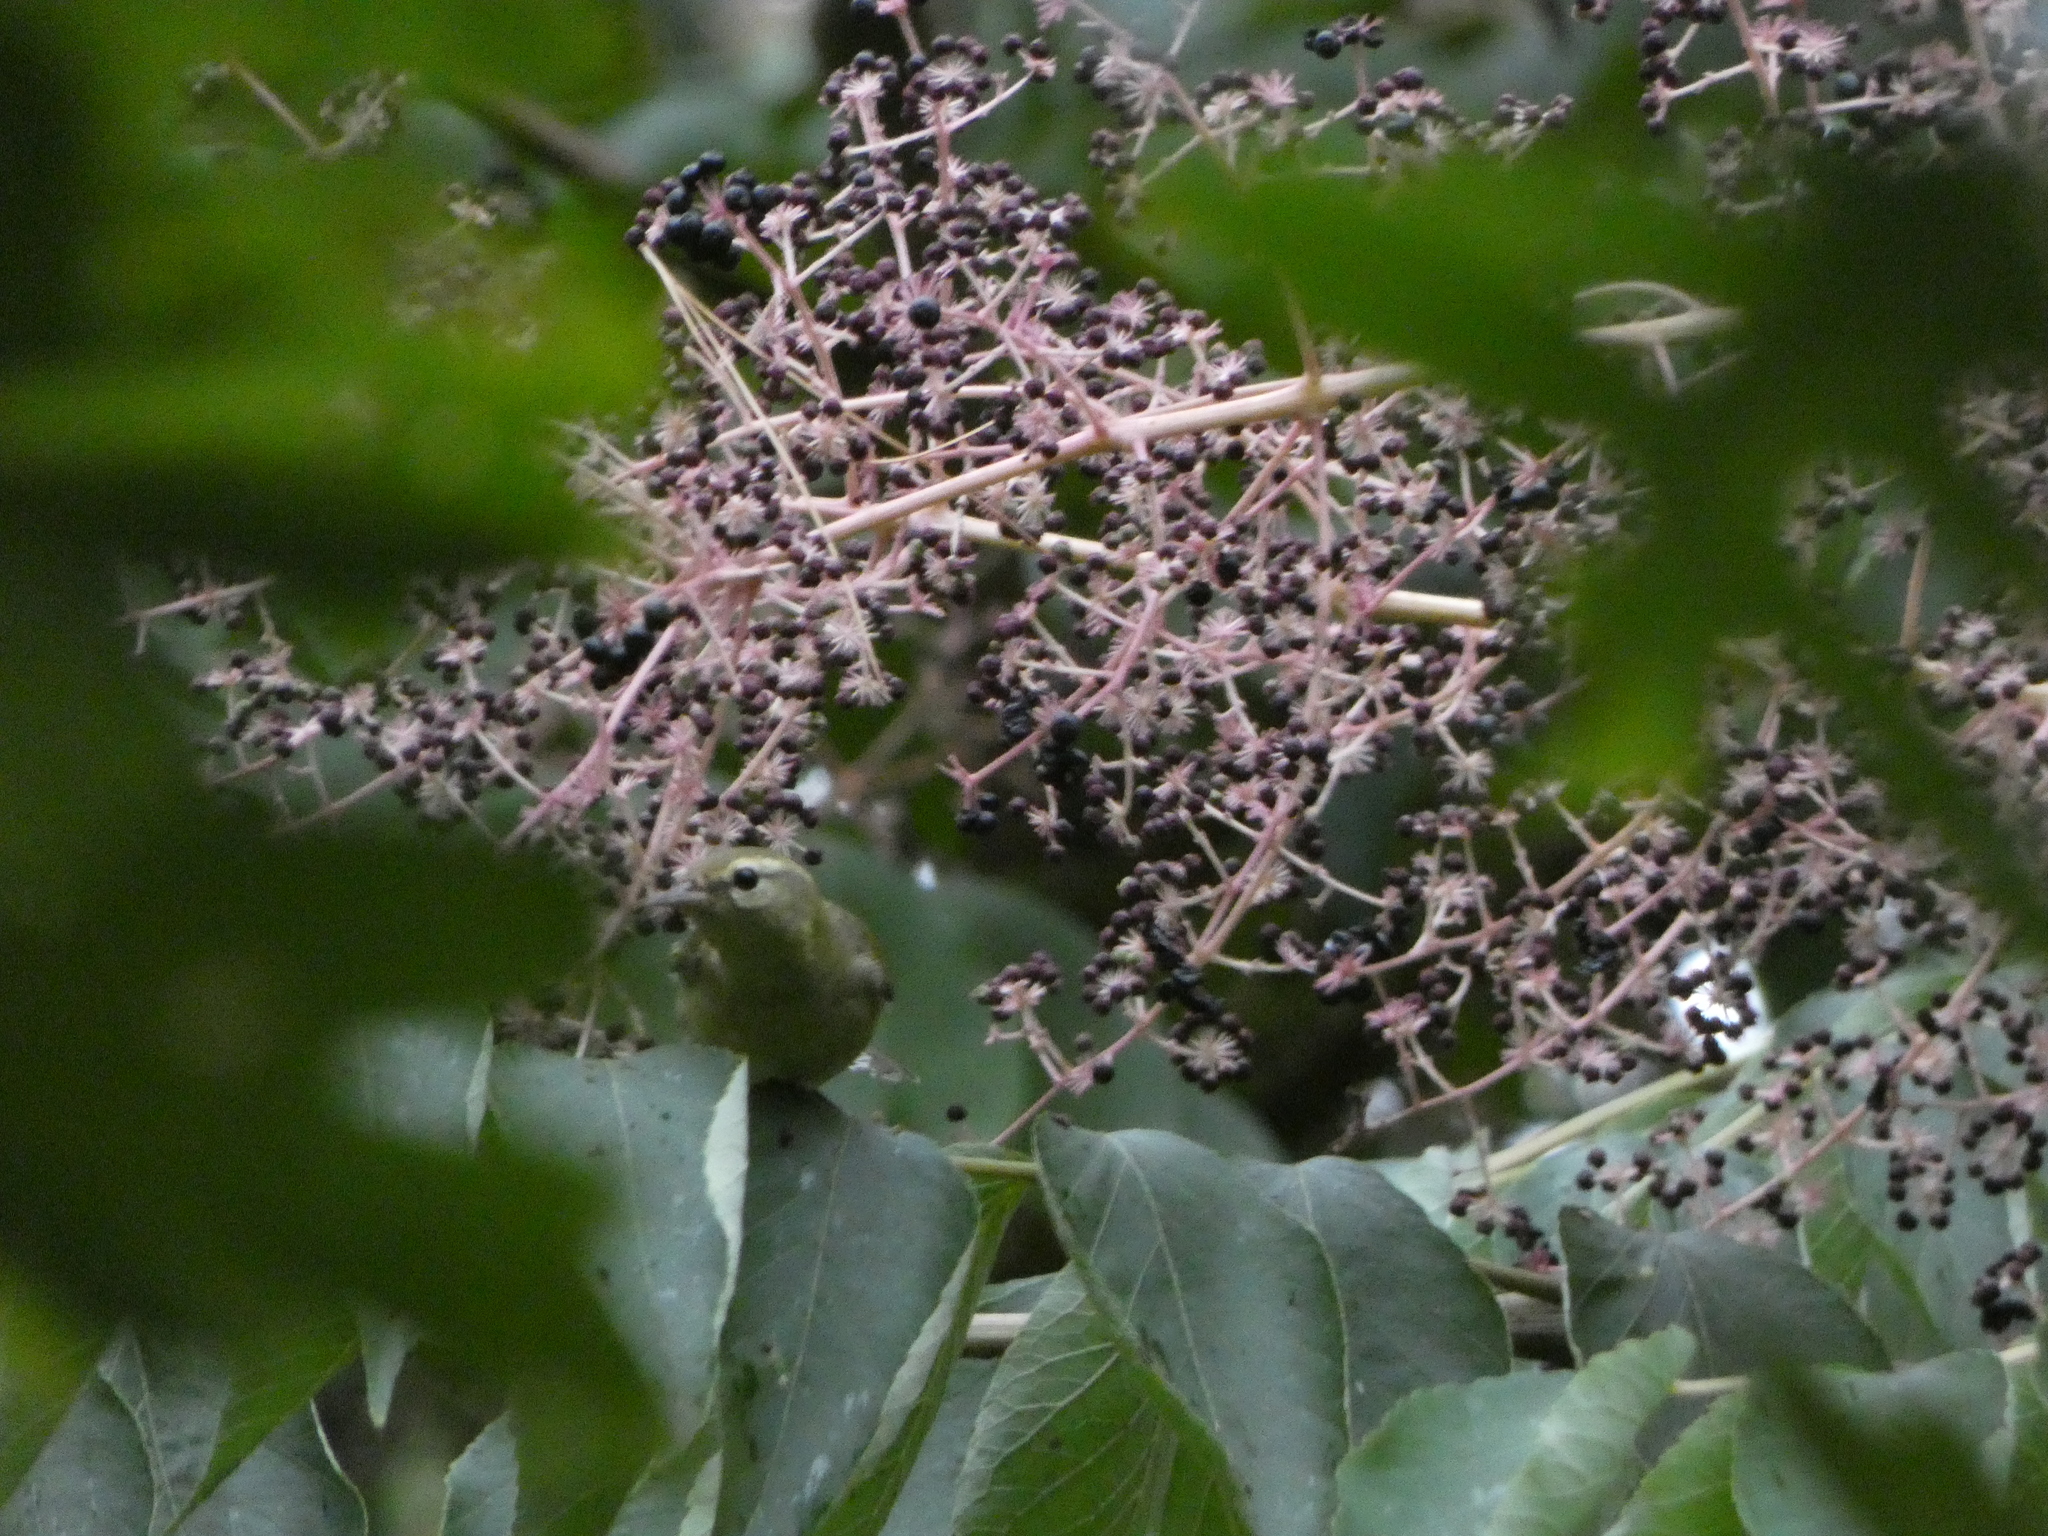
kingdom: Animalia
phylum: Chordata
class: Aves
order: Passeriformes
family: Parulidae
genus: Leiothlypis
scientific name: Leiothlypis peregrina
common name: Tennessee warbler
